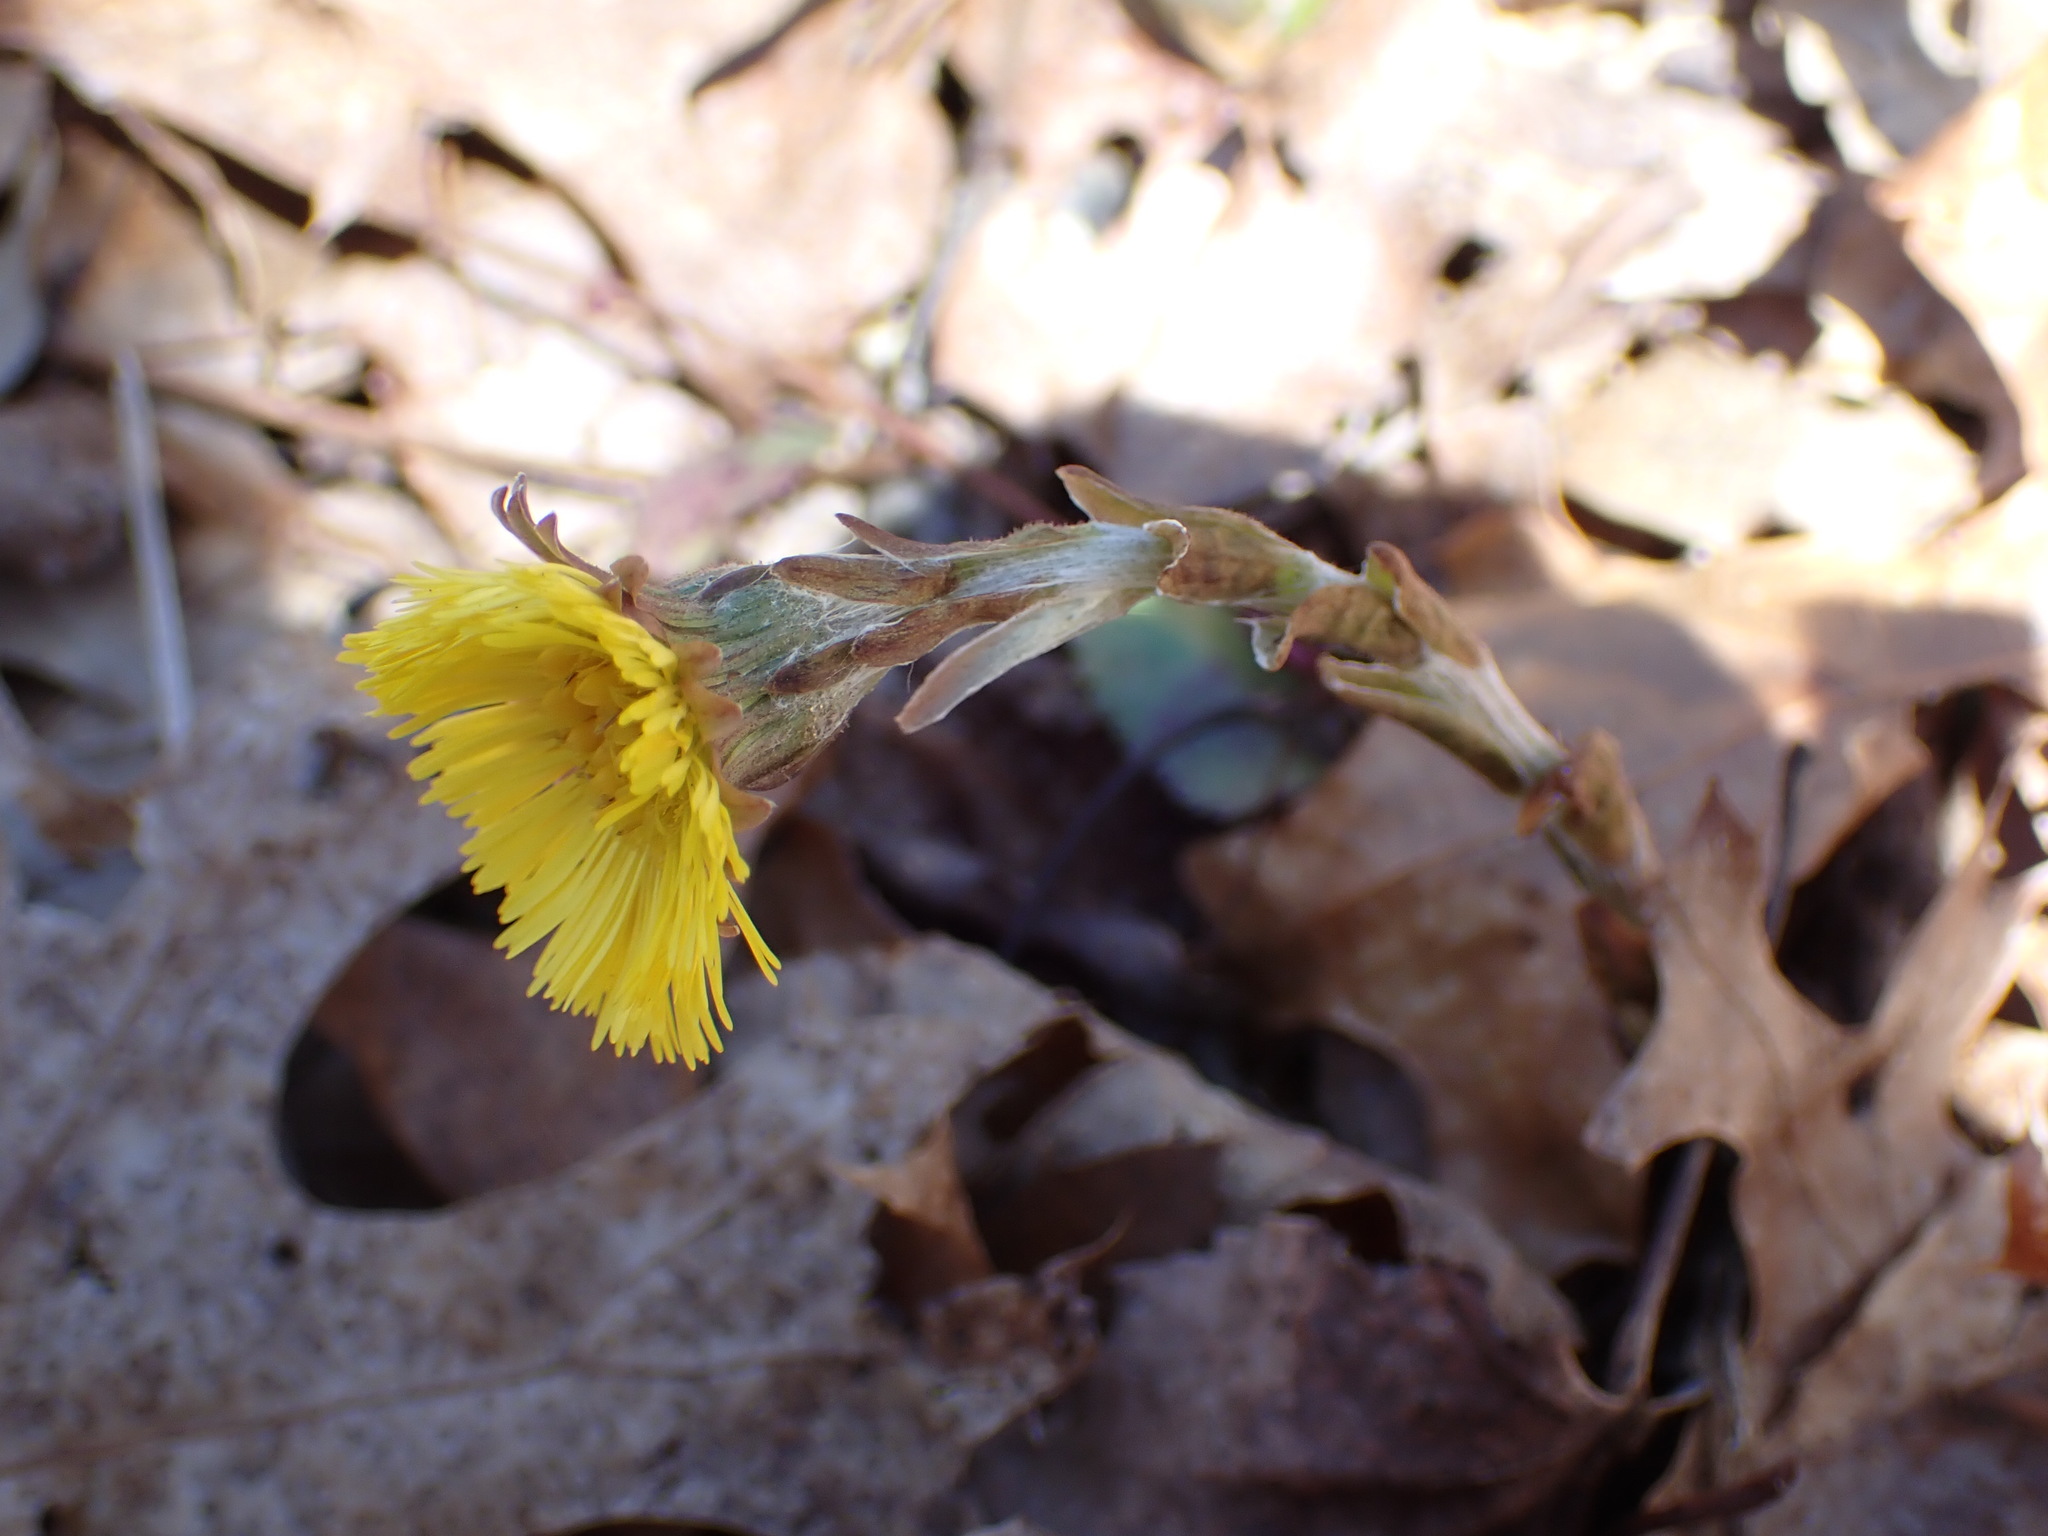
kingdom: Plantae
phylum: Tracheophyta
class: Magnoliopsida
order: Asterales
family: Asteraceae
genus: Tussilago
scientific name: Tussilago farfara
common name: Coltsfoot
